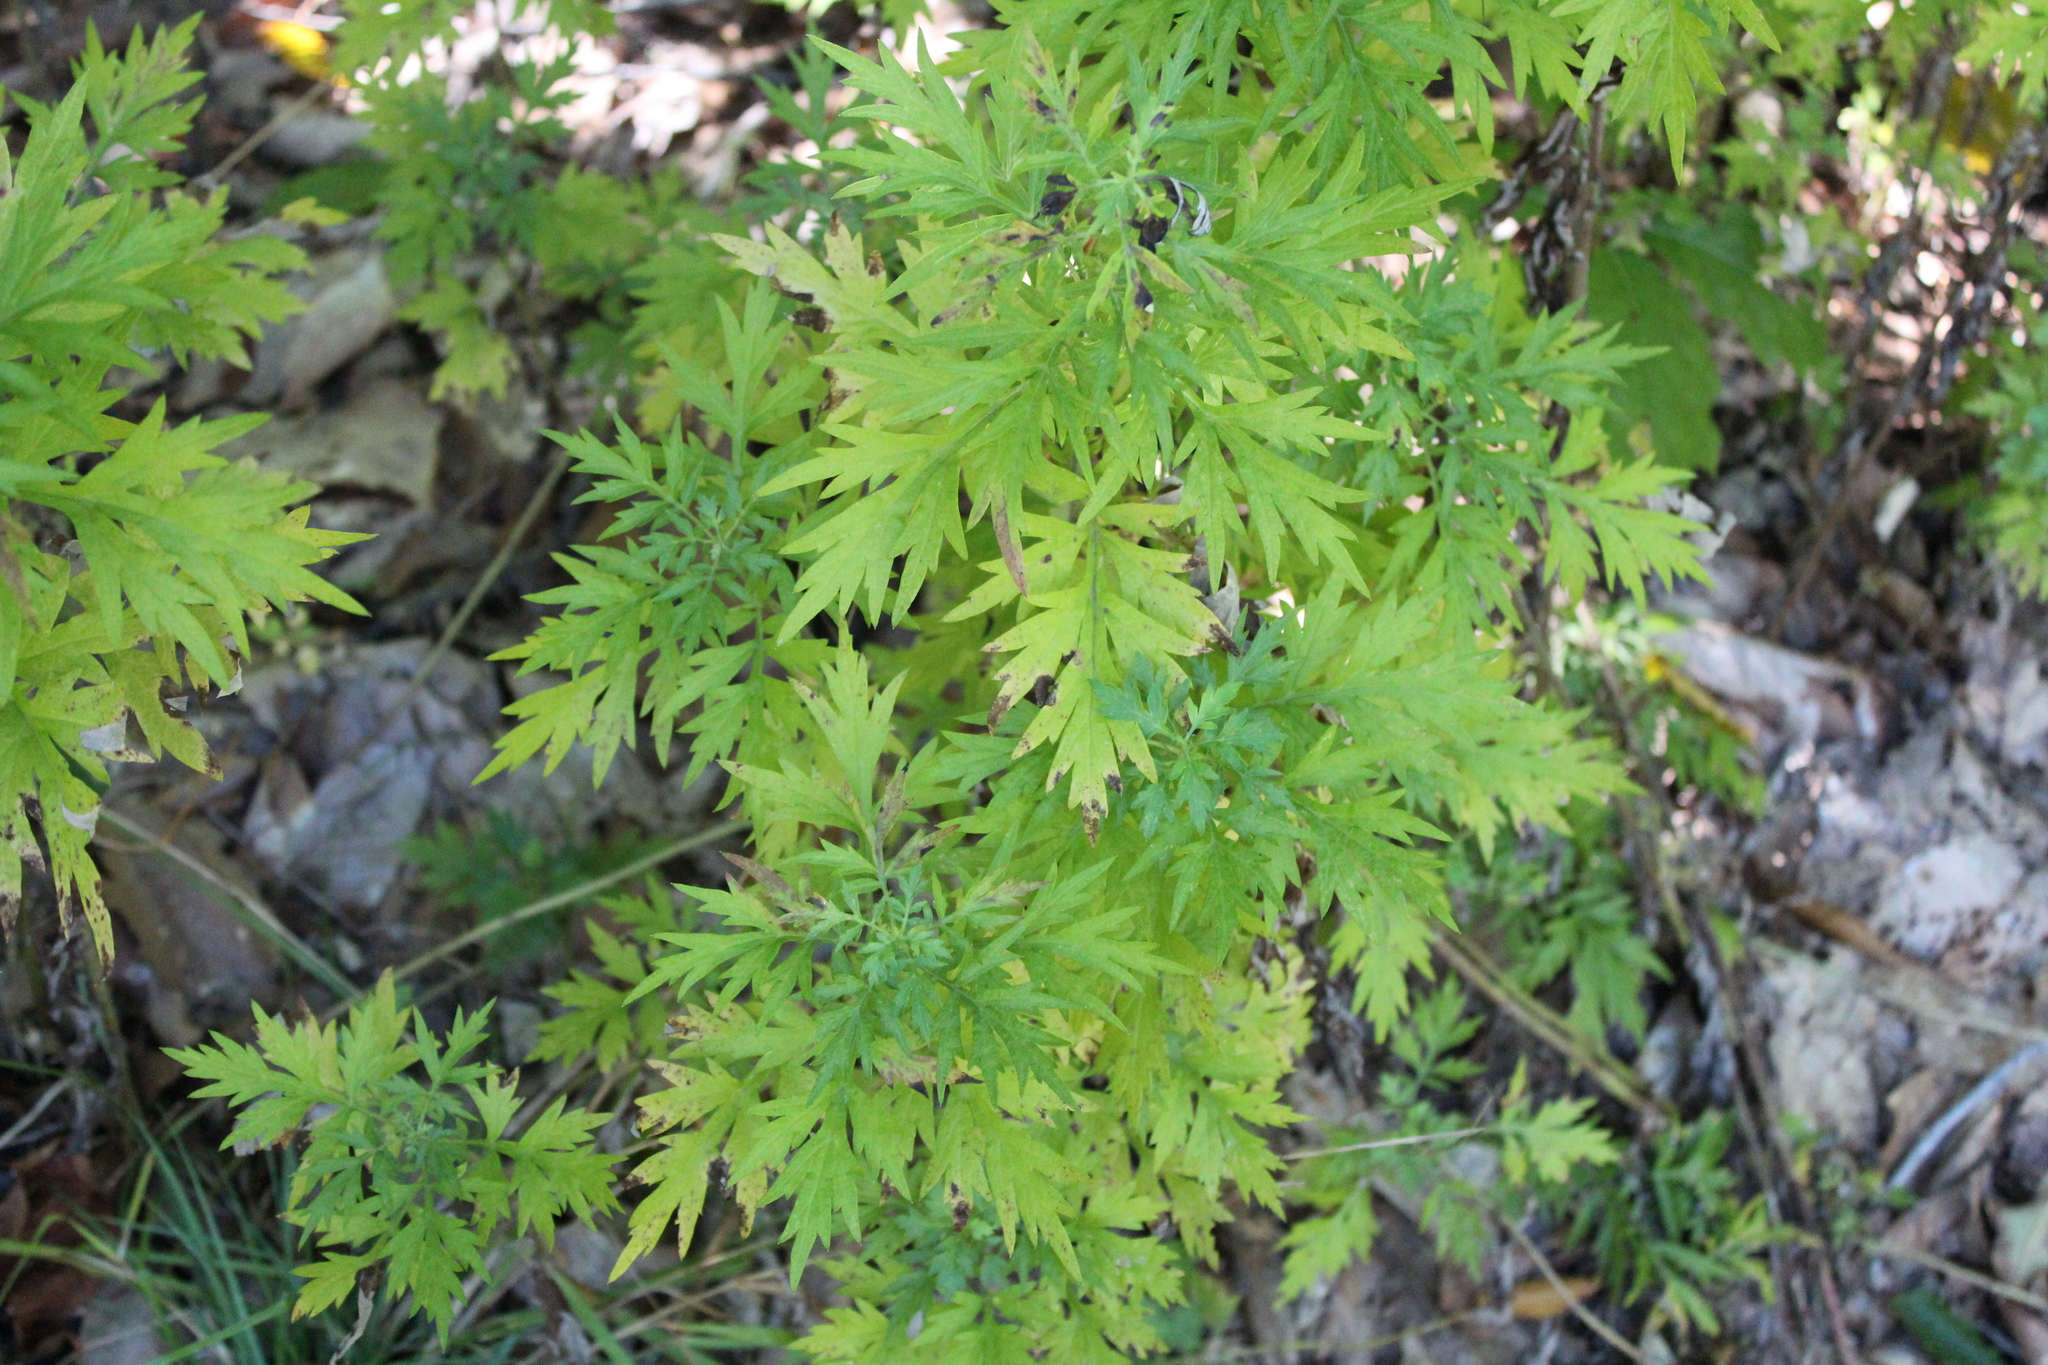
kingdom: Plantae
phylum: Tracheophyta
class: Magnoliopsida
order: Asterales
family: Asteraceae
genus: Artemisia
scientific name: Artemisia vulgaris
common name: Mugwort
